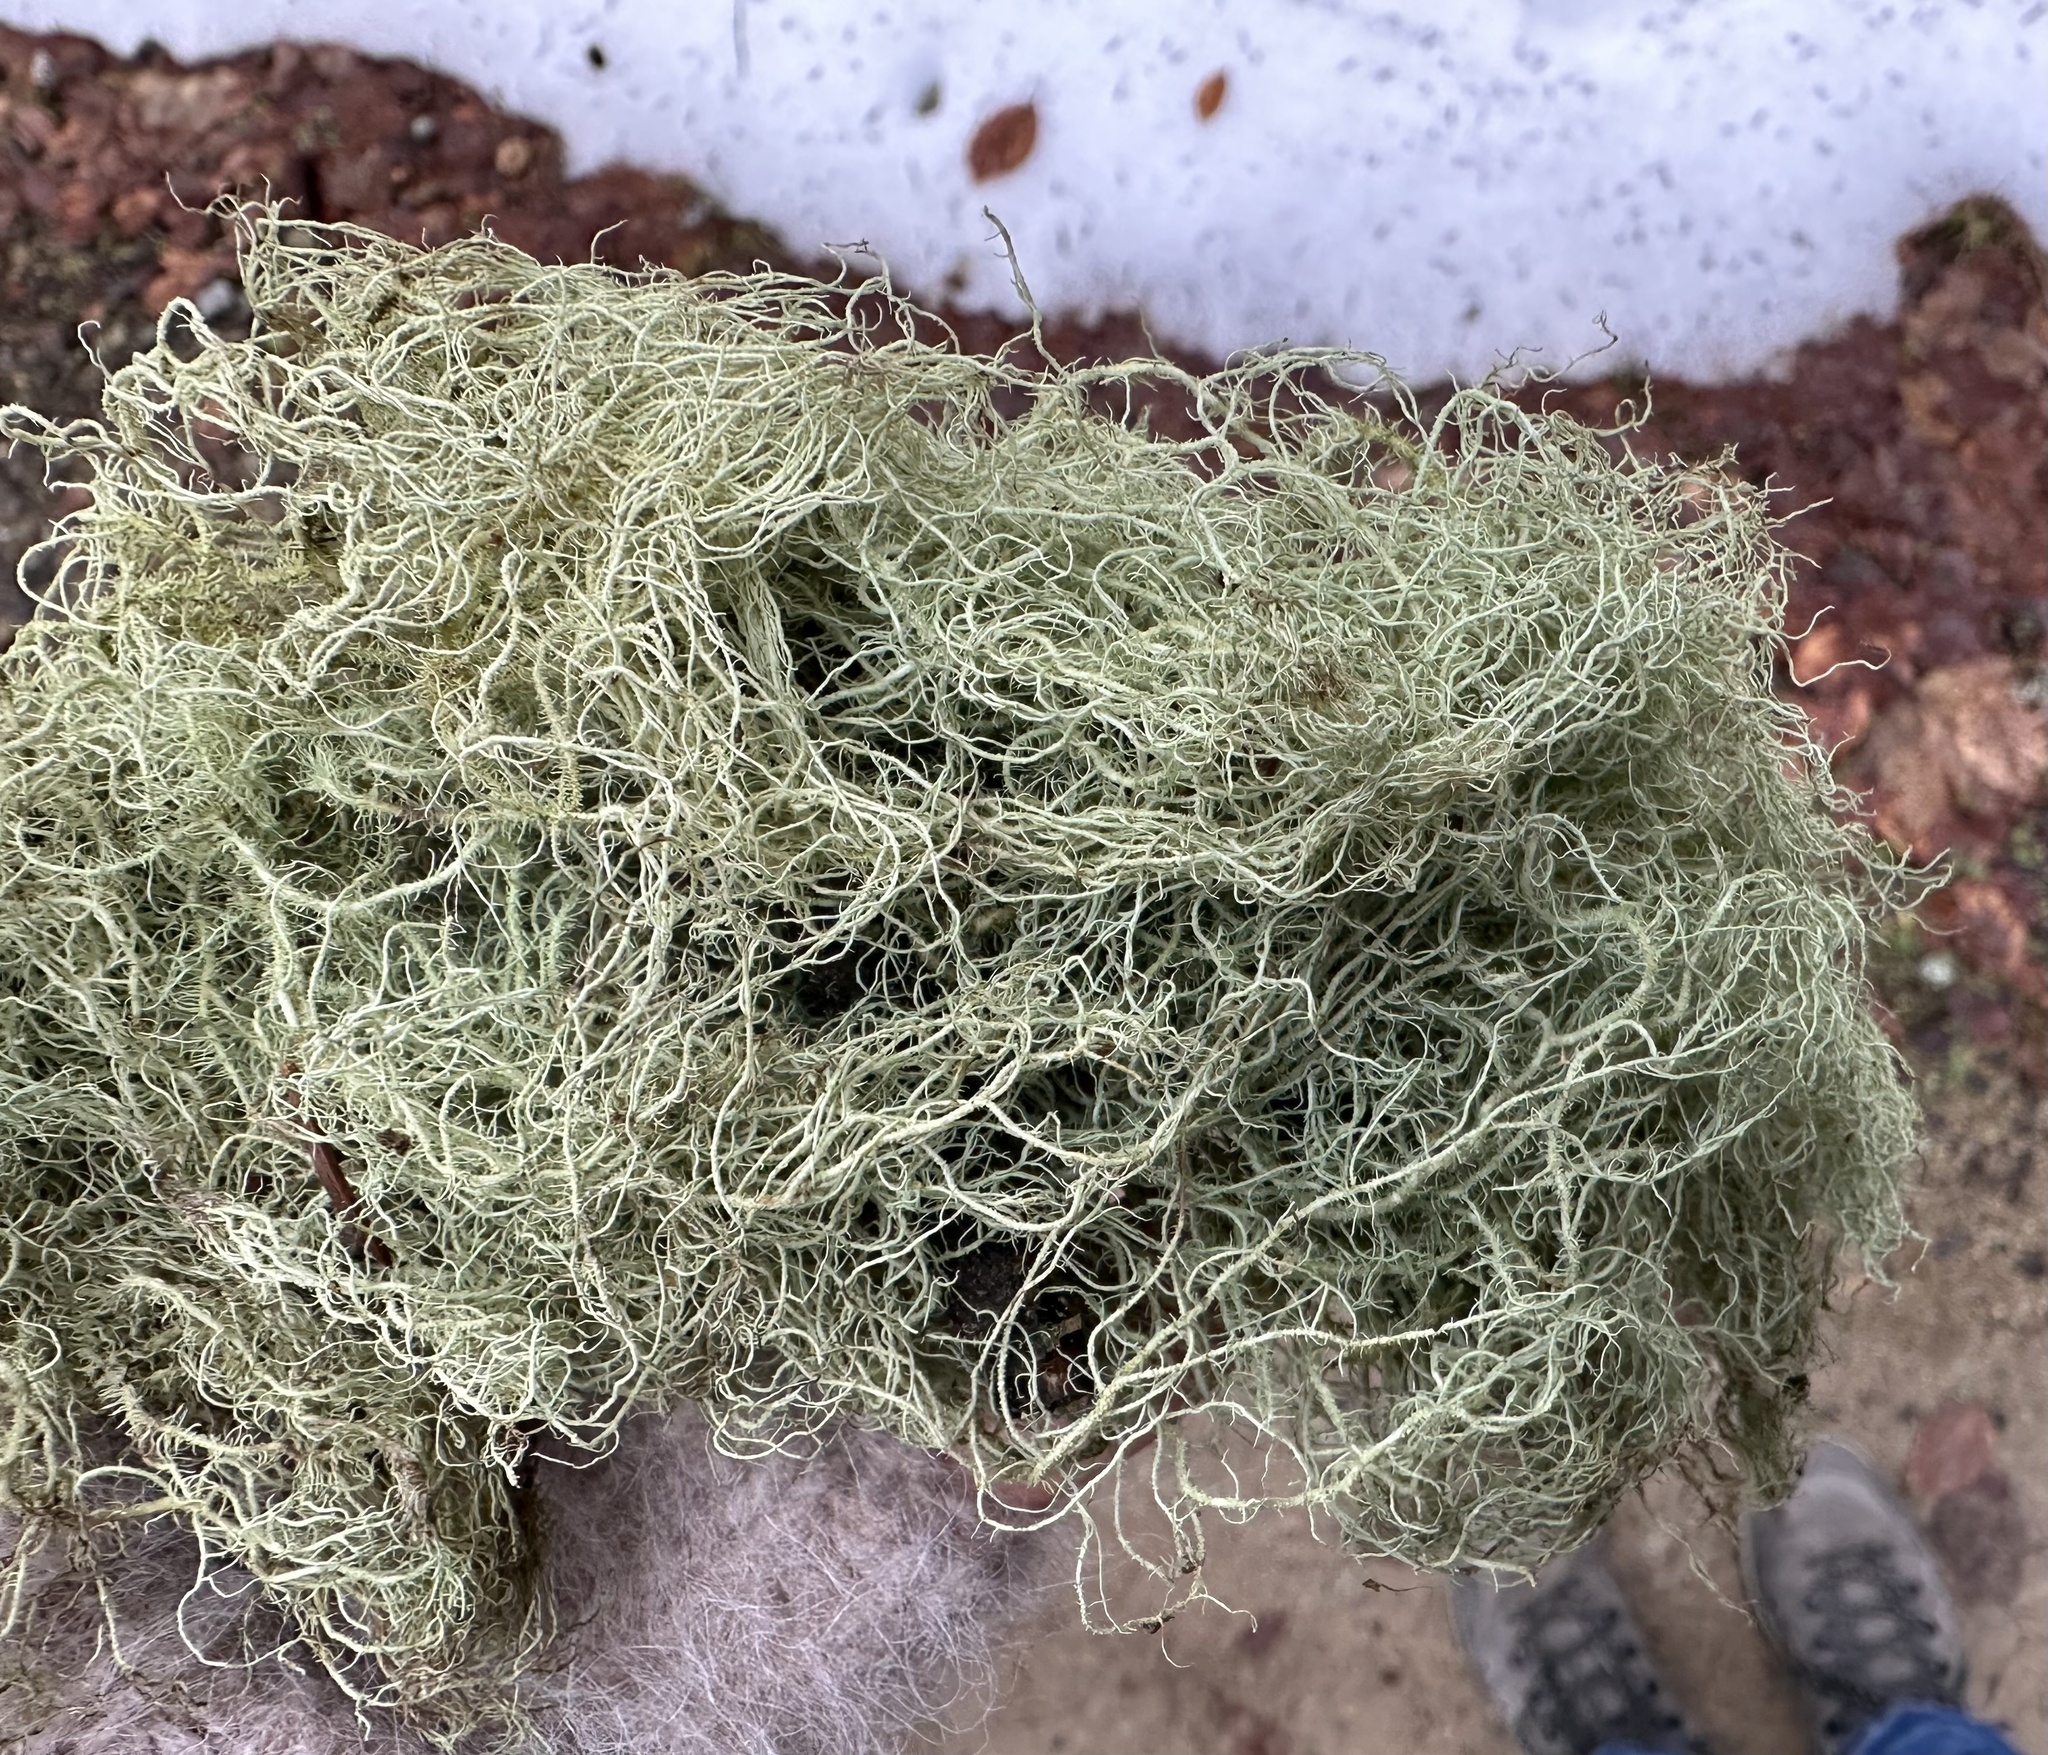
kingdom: Fungi
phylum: Ascomycota
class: Lecanoromycetes
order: Lecanorales
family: Parmeliaceae
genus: Usnea
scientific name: Usnea dasopoga
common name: Fishbone beard lichen
